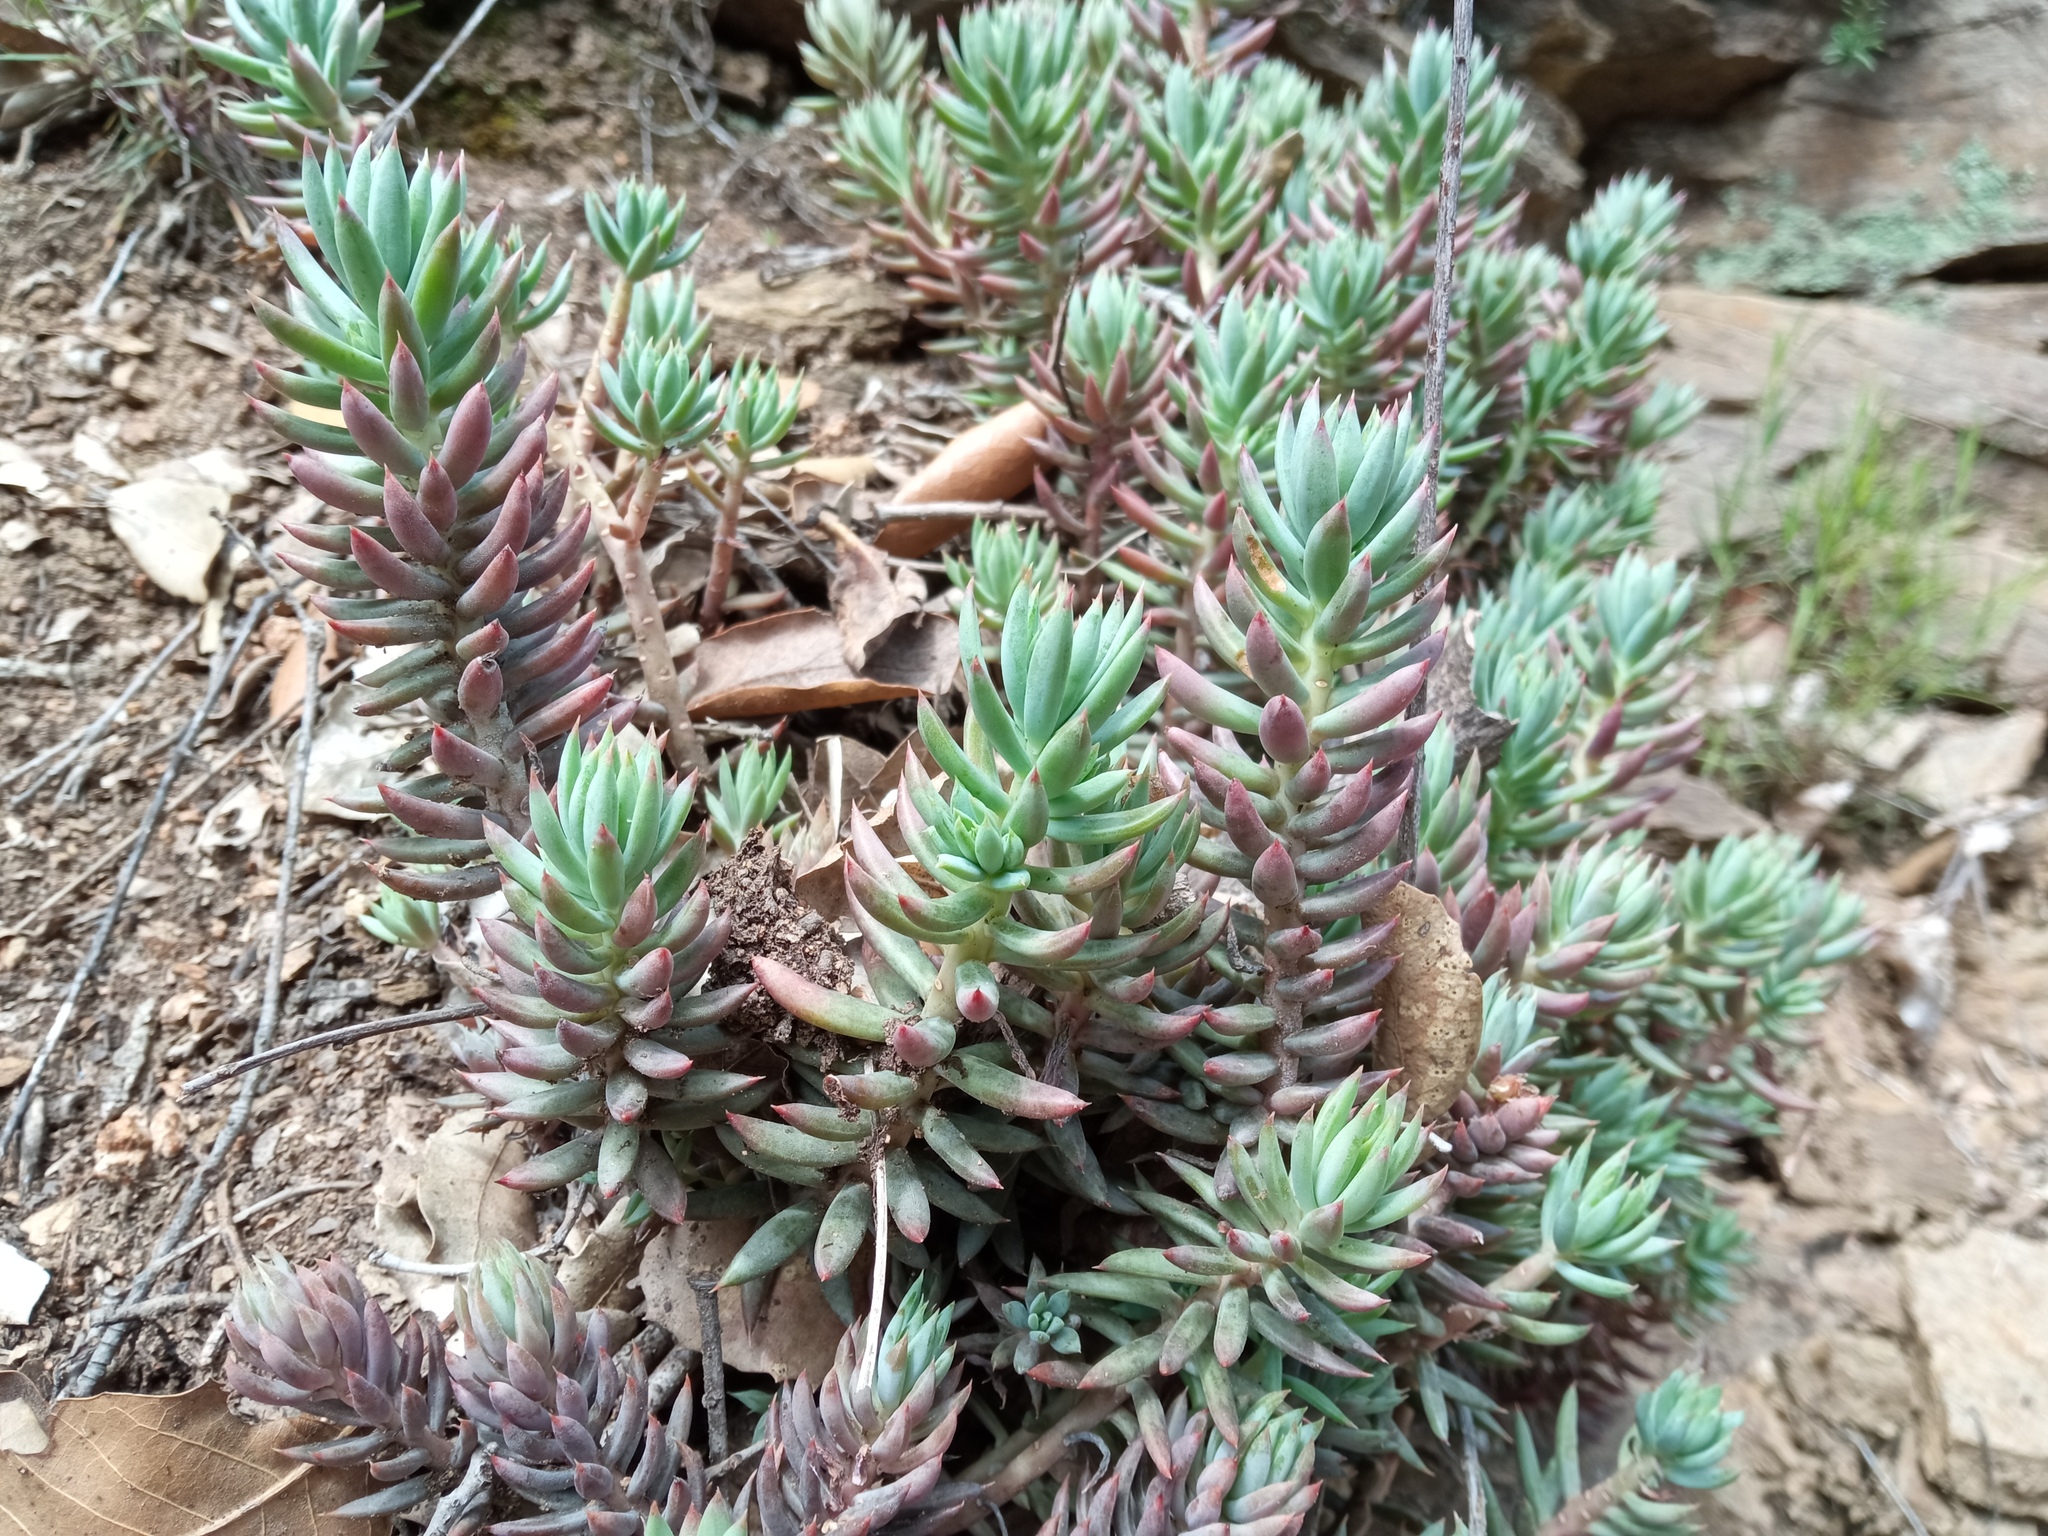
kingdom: Plantae
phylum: Tracheophyta
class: Magnoliopsida
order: Saxifragales
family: Crassulaceae
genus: Petrosedum
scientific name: Petrosedum sediforme
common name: Pale stonecrop
